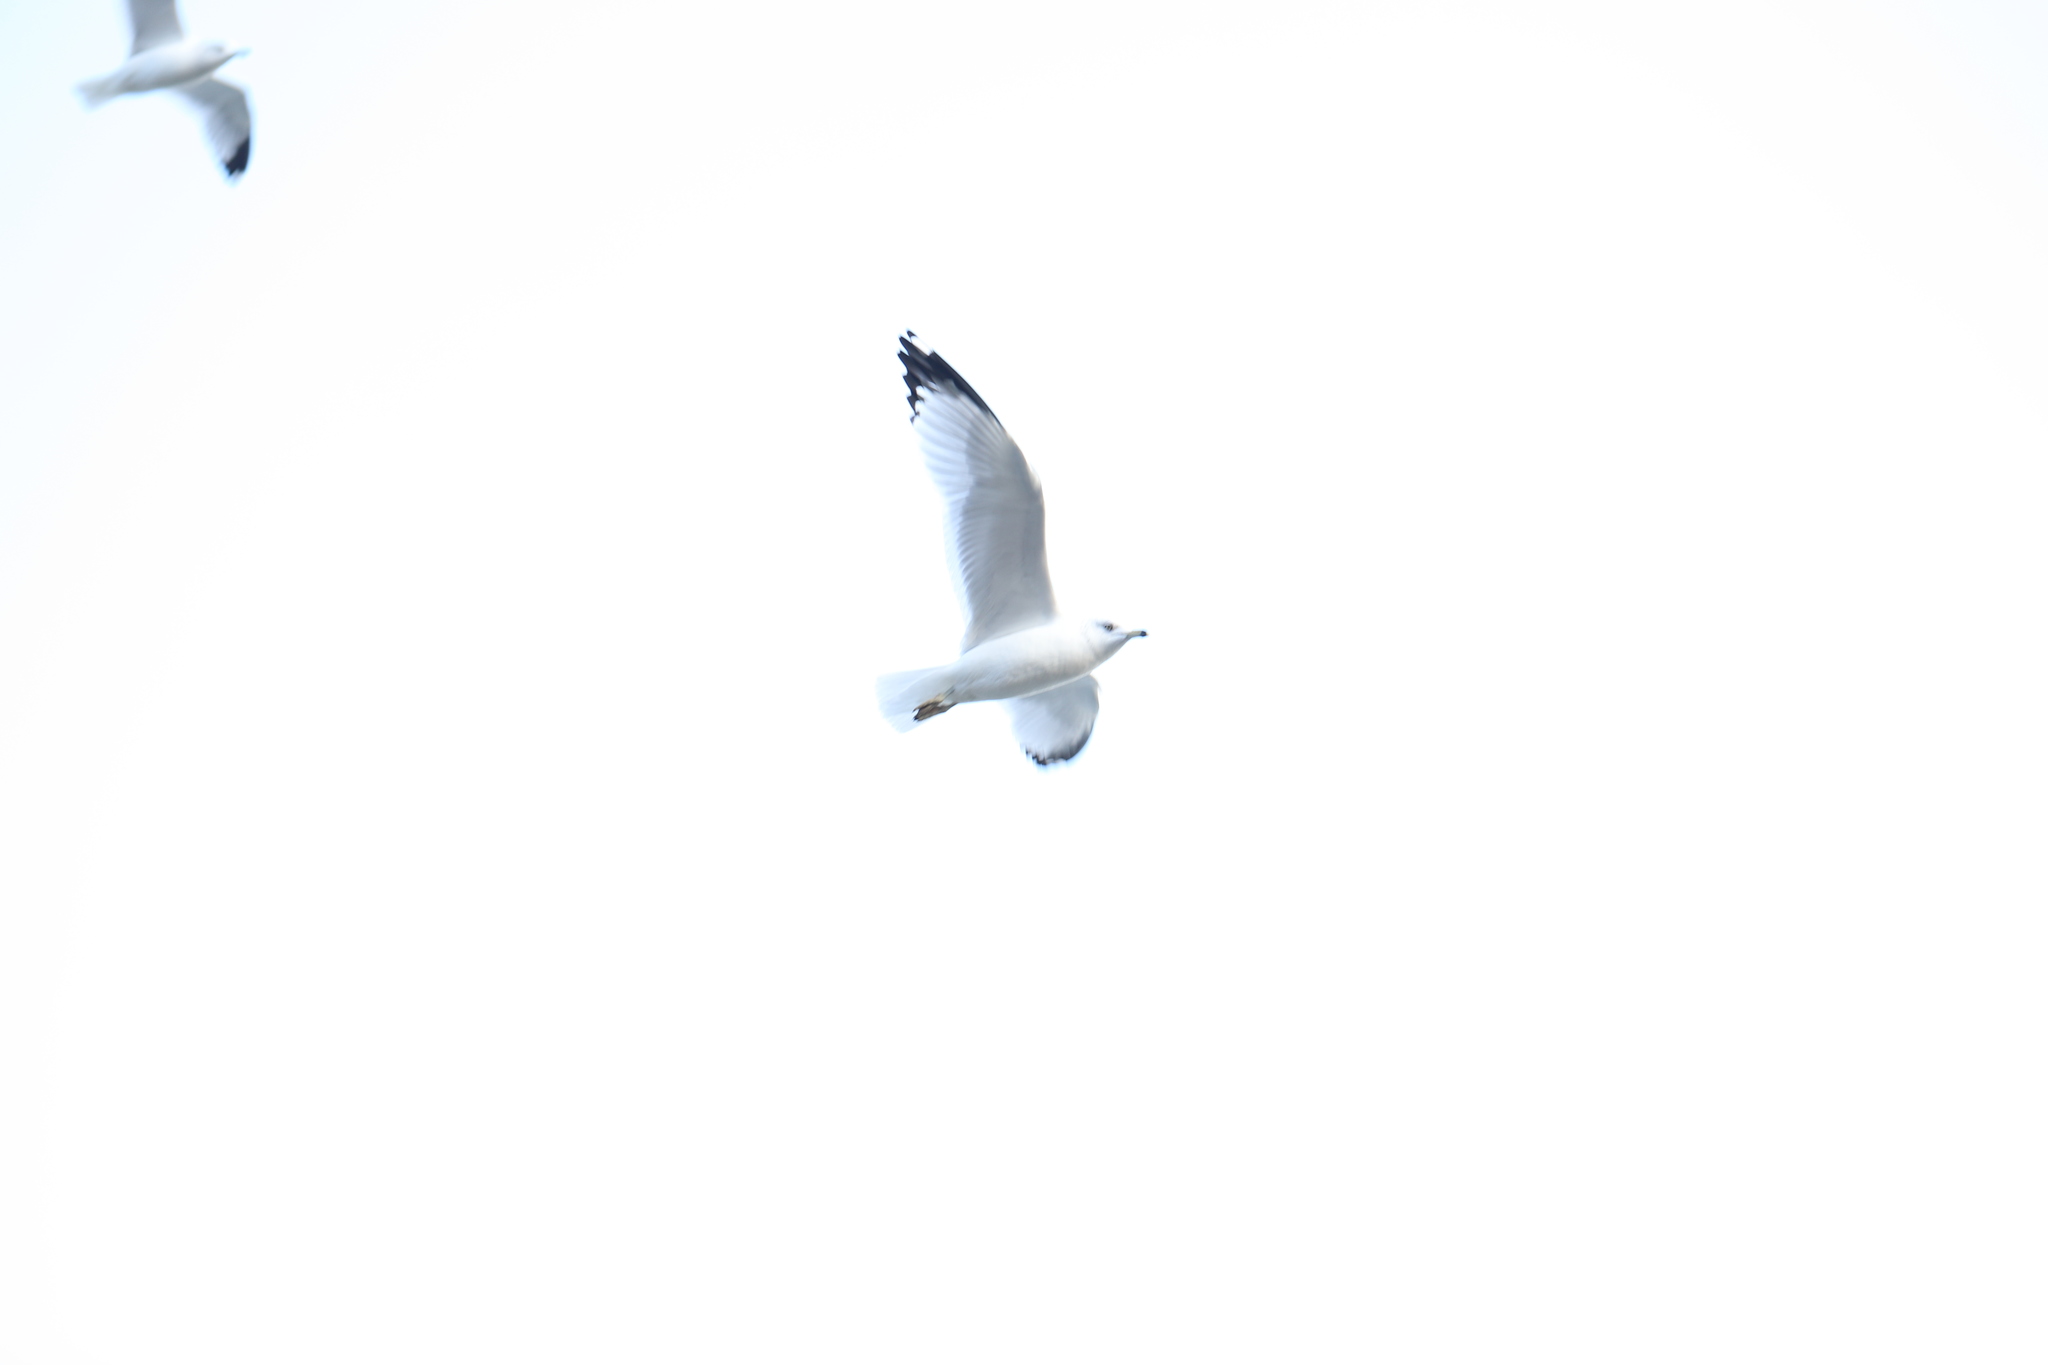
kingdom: Animalia
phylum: Chordata
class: Aves
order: Charadriiformes
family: Laridae
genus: Larus
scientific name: Larus delawarensis
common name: Ring-billed gull
